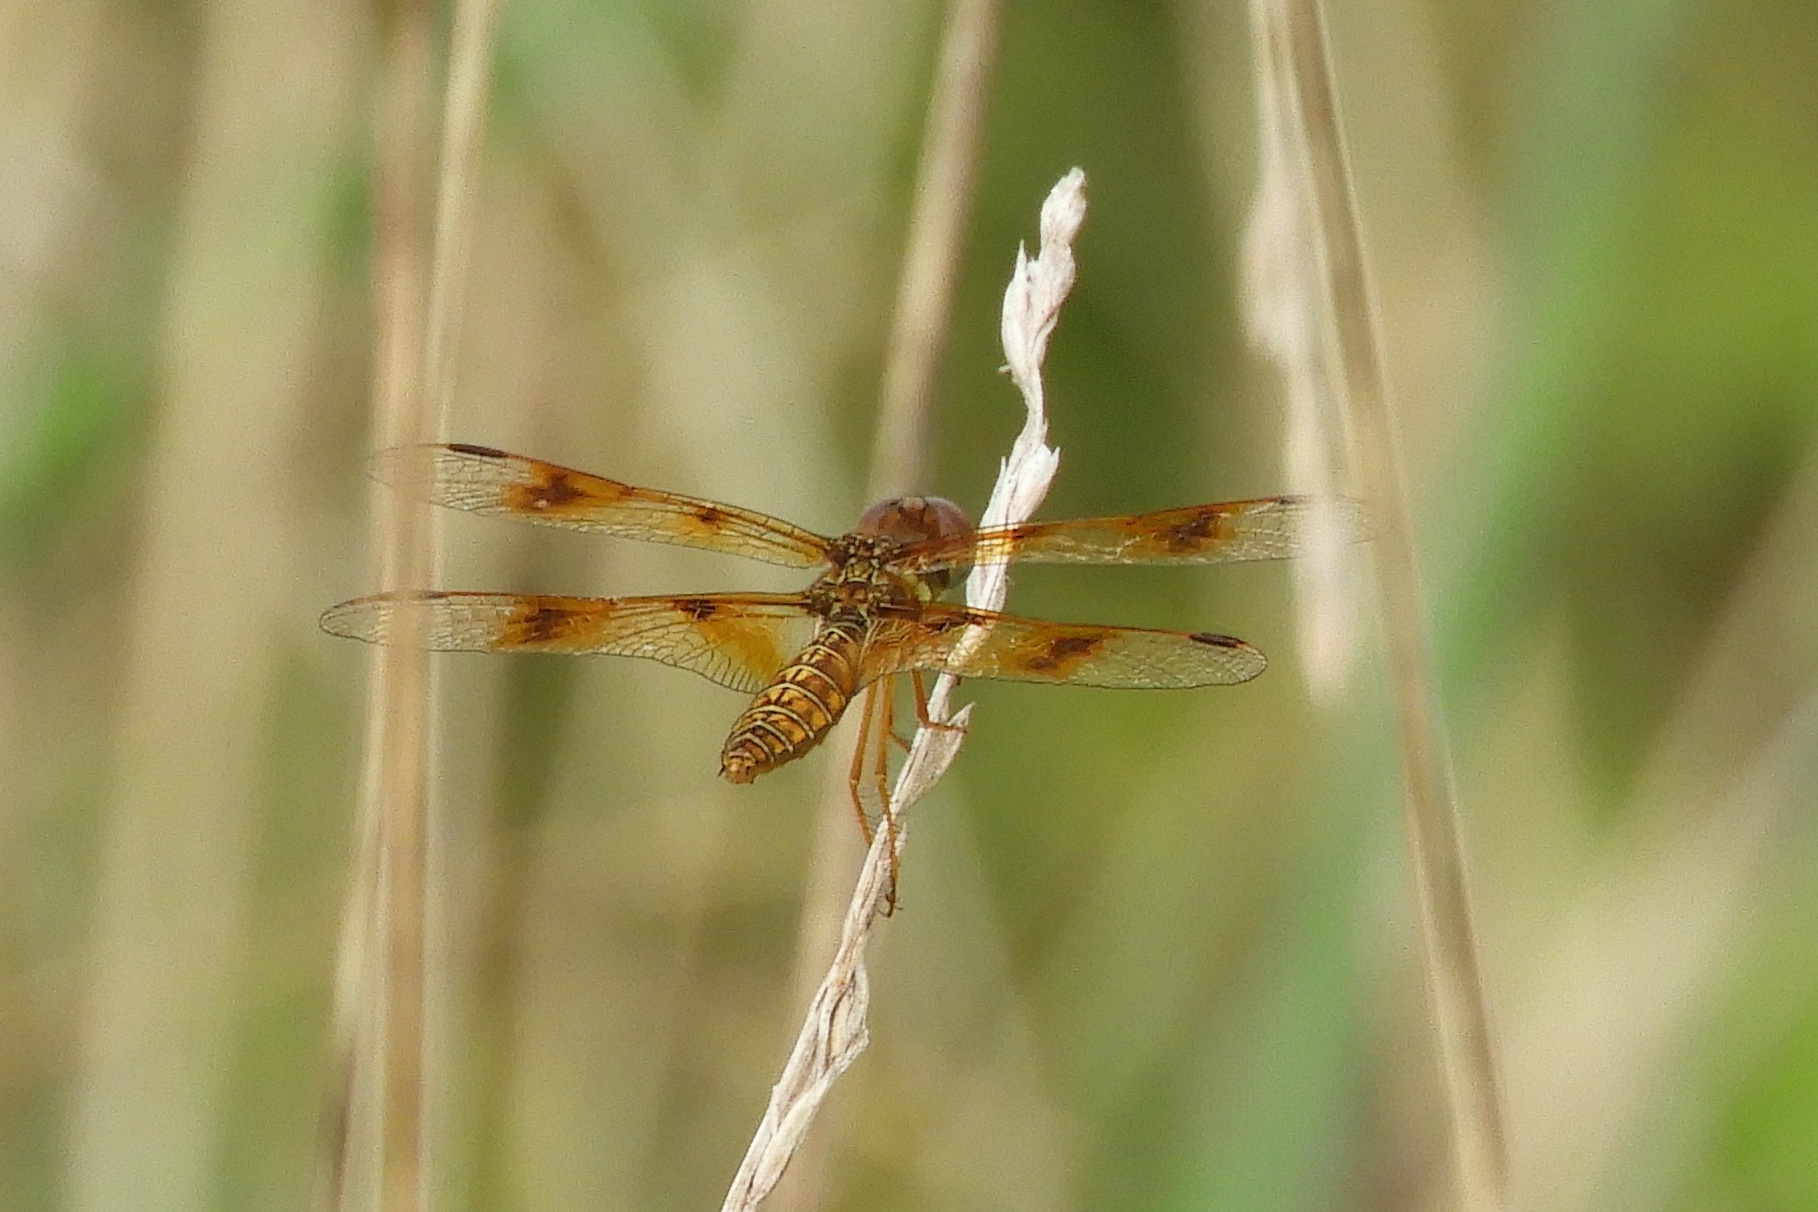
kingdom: Animalia
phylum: Arthropoda
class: Insecta
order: Odonata
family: Libellulidae
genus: Perithemis
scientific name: Perithemis tenera
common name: Eastern amberwing
